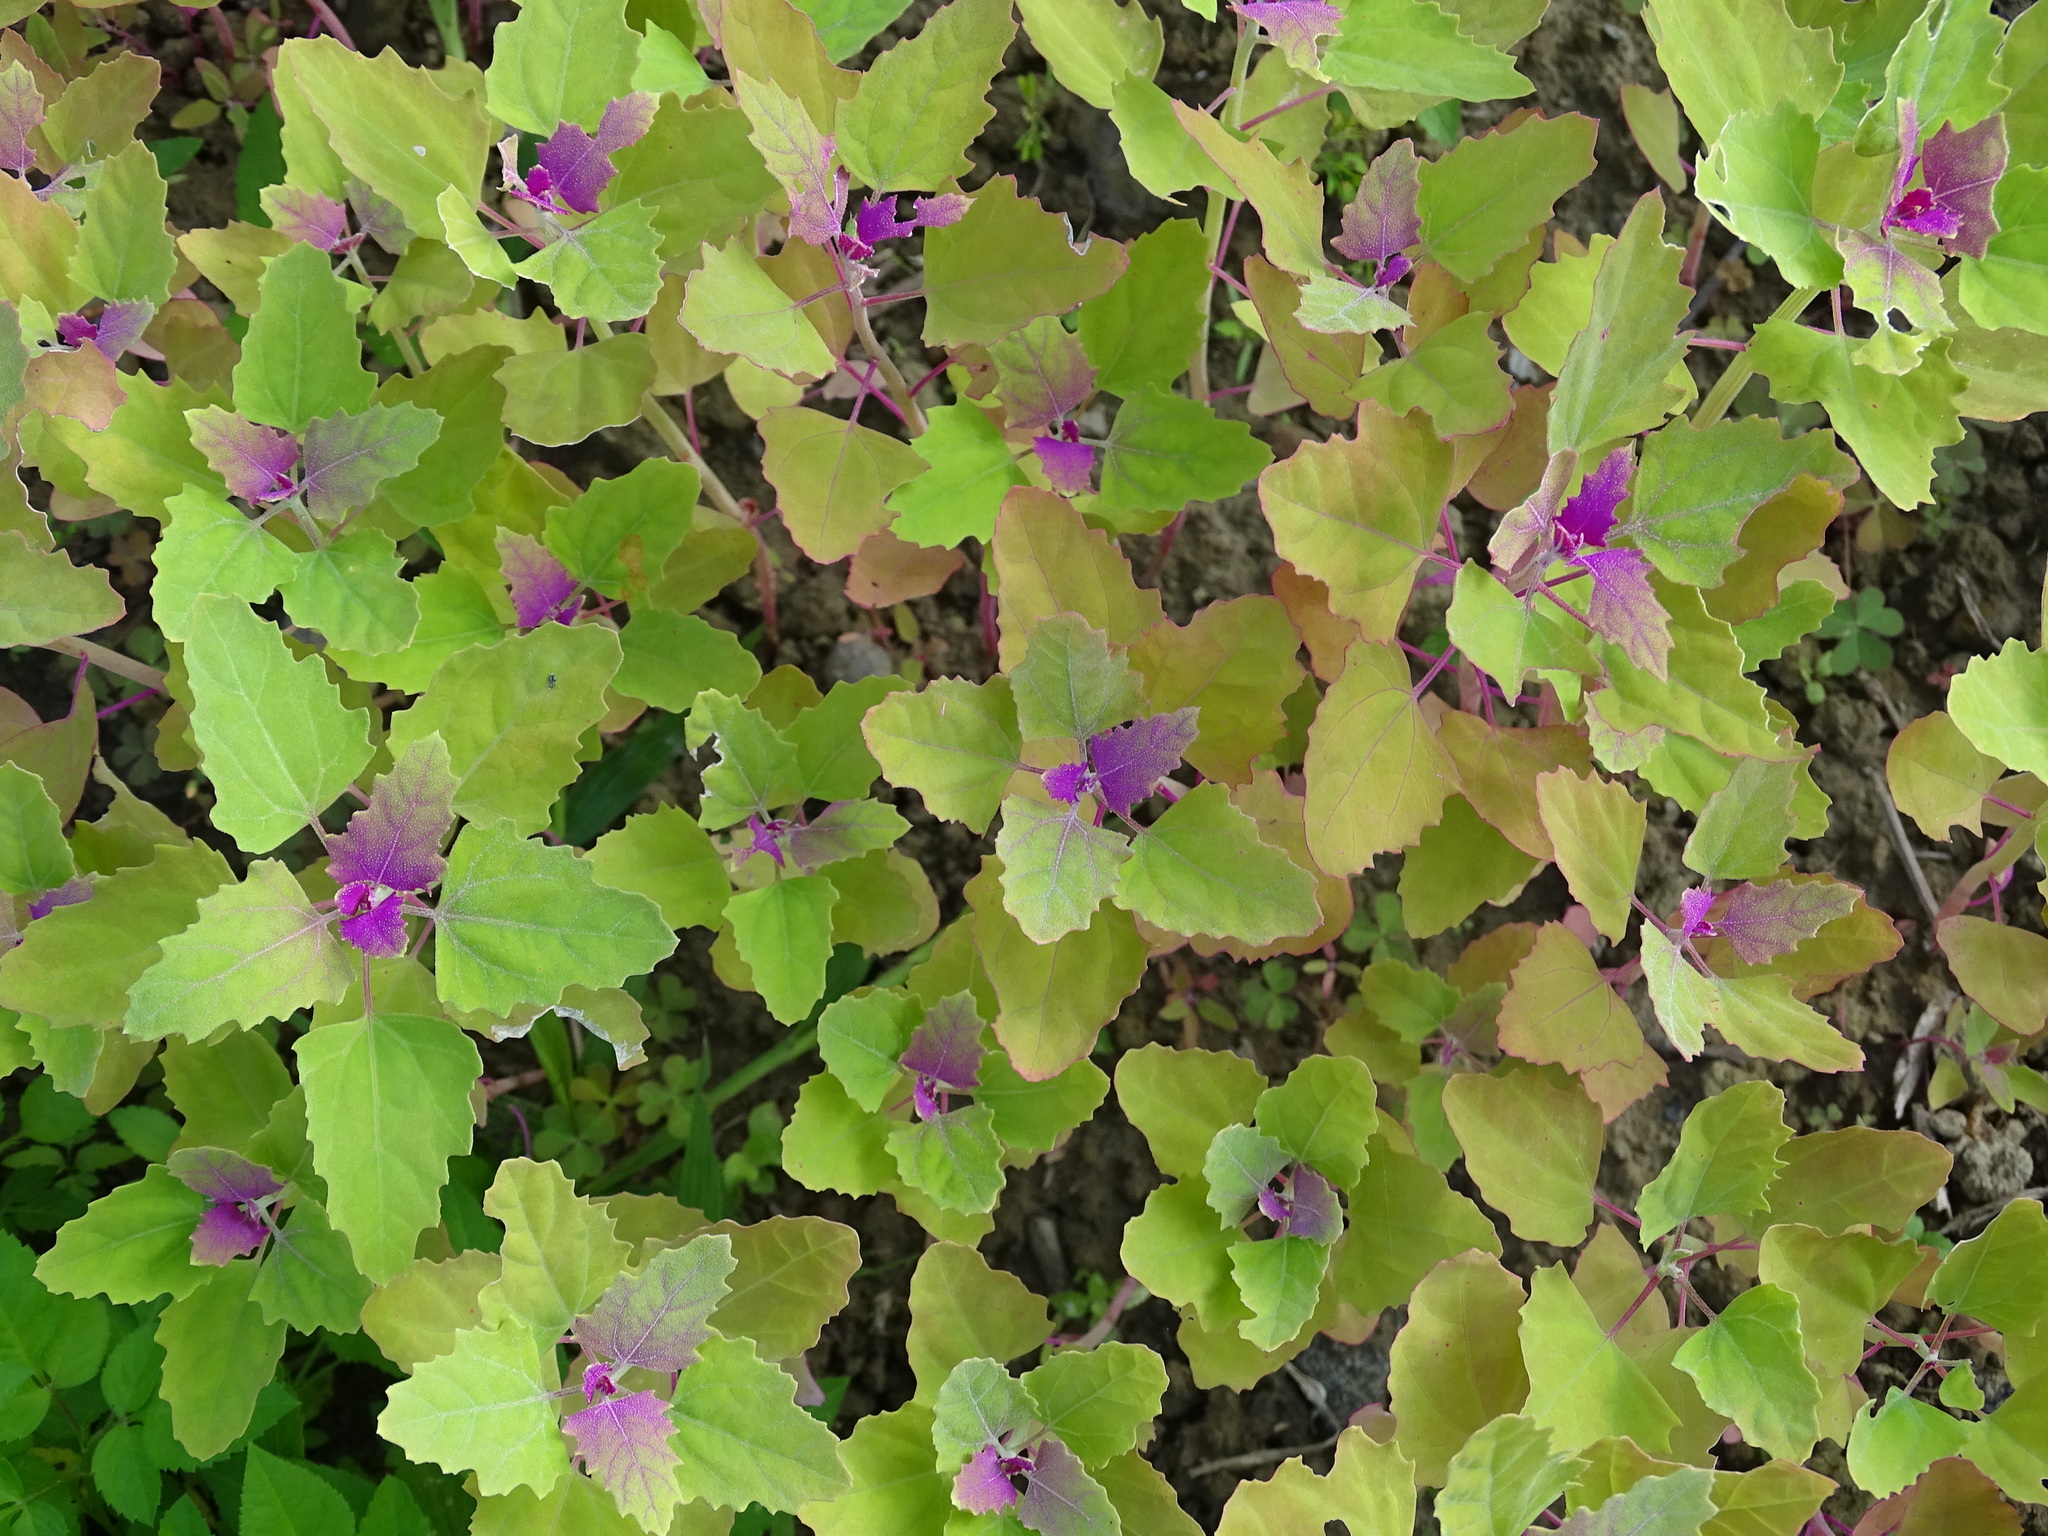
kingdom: Plantae
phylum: Tracheophyta
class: Magnoliopsida
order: Caryophyllales
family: Amaranthaceae
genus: Chenopodium
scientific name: Chenopodium giganteum
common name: Magentaspreen
